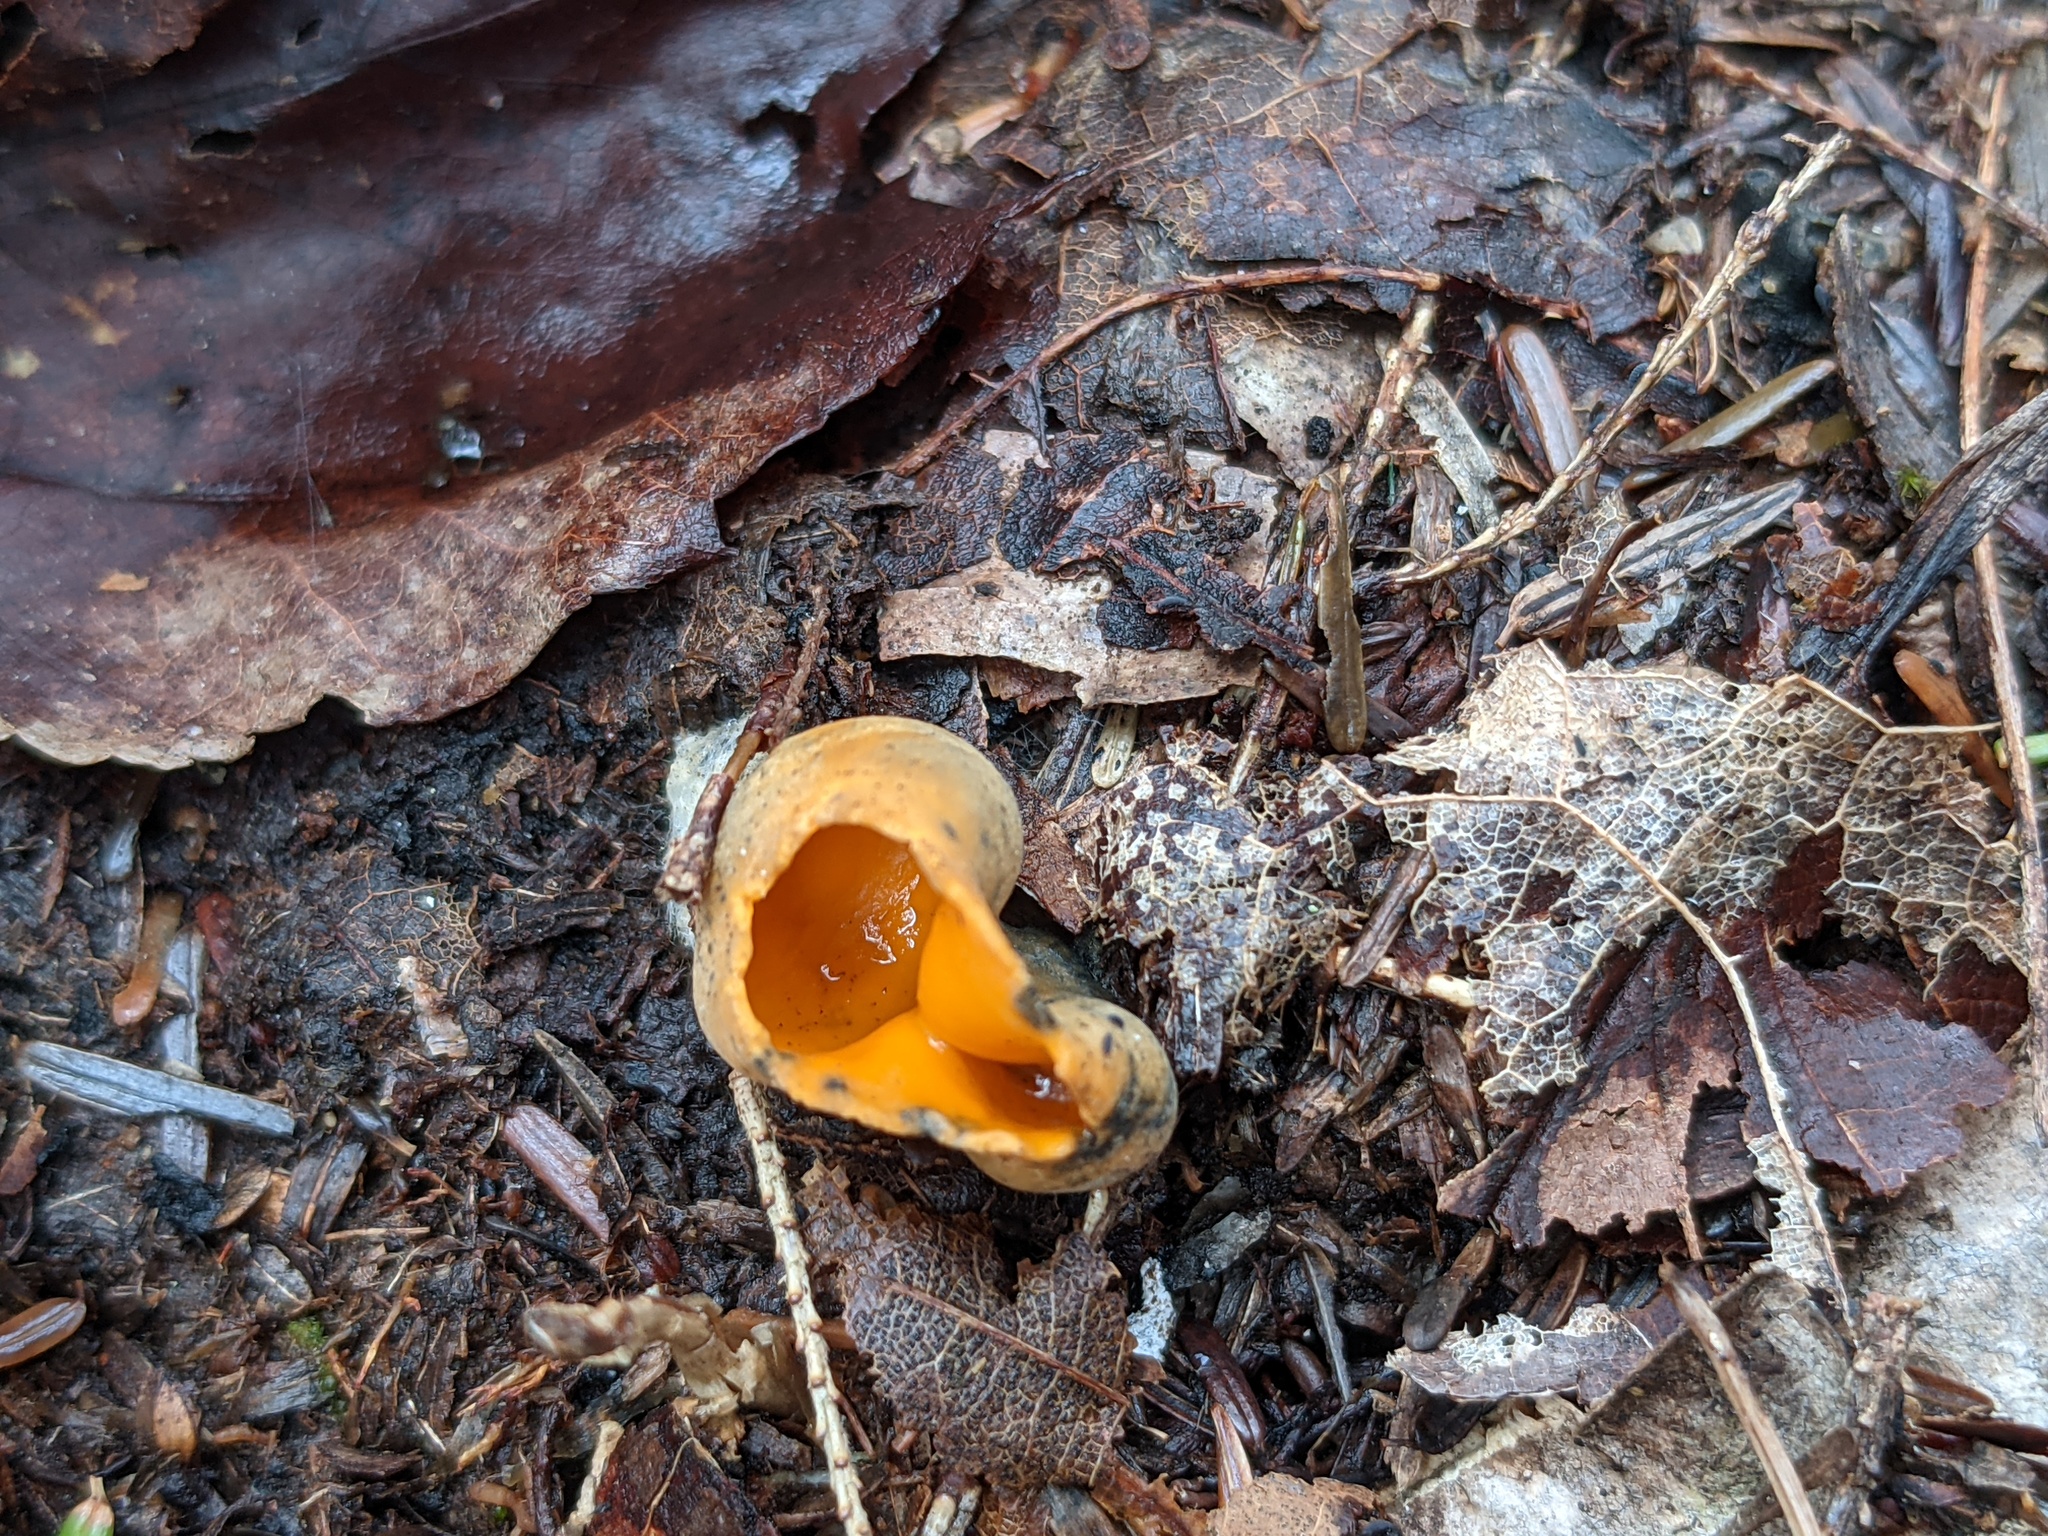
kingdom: Fungi
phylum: Ascomycota
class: Pezizomycetes
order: Pezizales
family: Caloscyphaceae
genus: Caloscypha
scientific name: Caloscypha fulgens
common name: Golden cup
